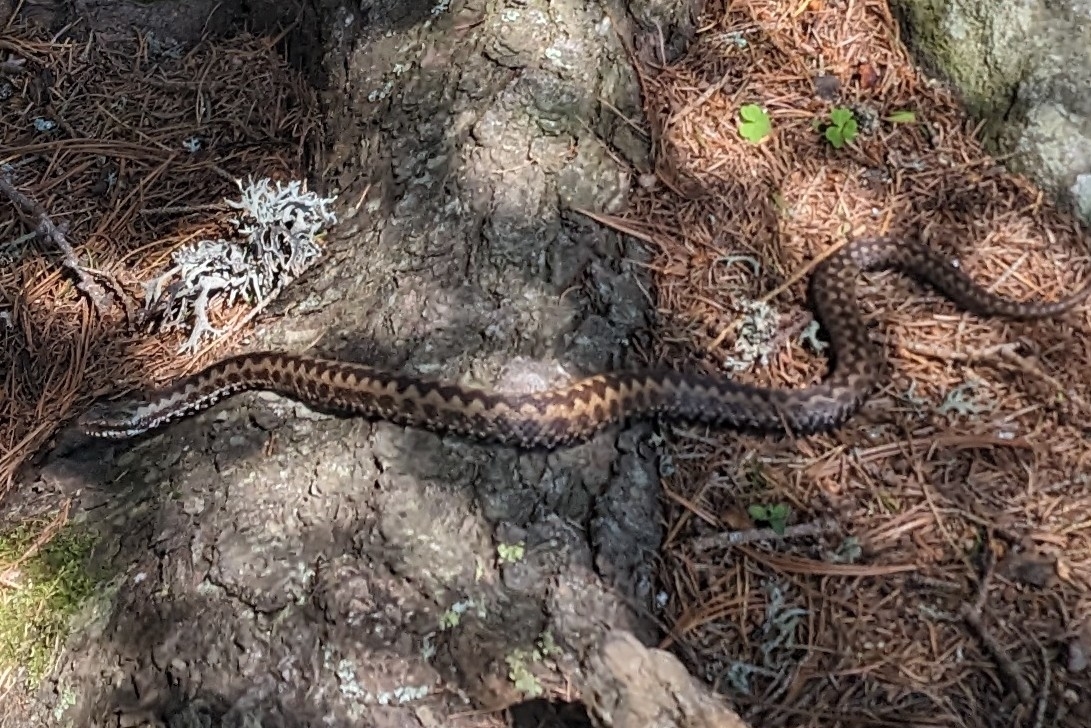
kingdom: Animalia
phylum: Chordata
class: Squamata
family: Viperidae
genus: Vipera
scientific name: Vipera berus
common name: Adder
